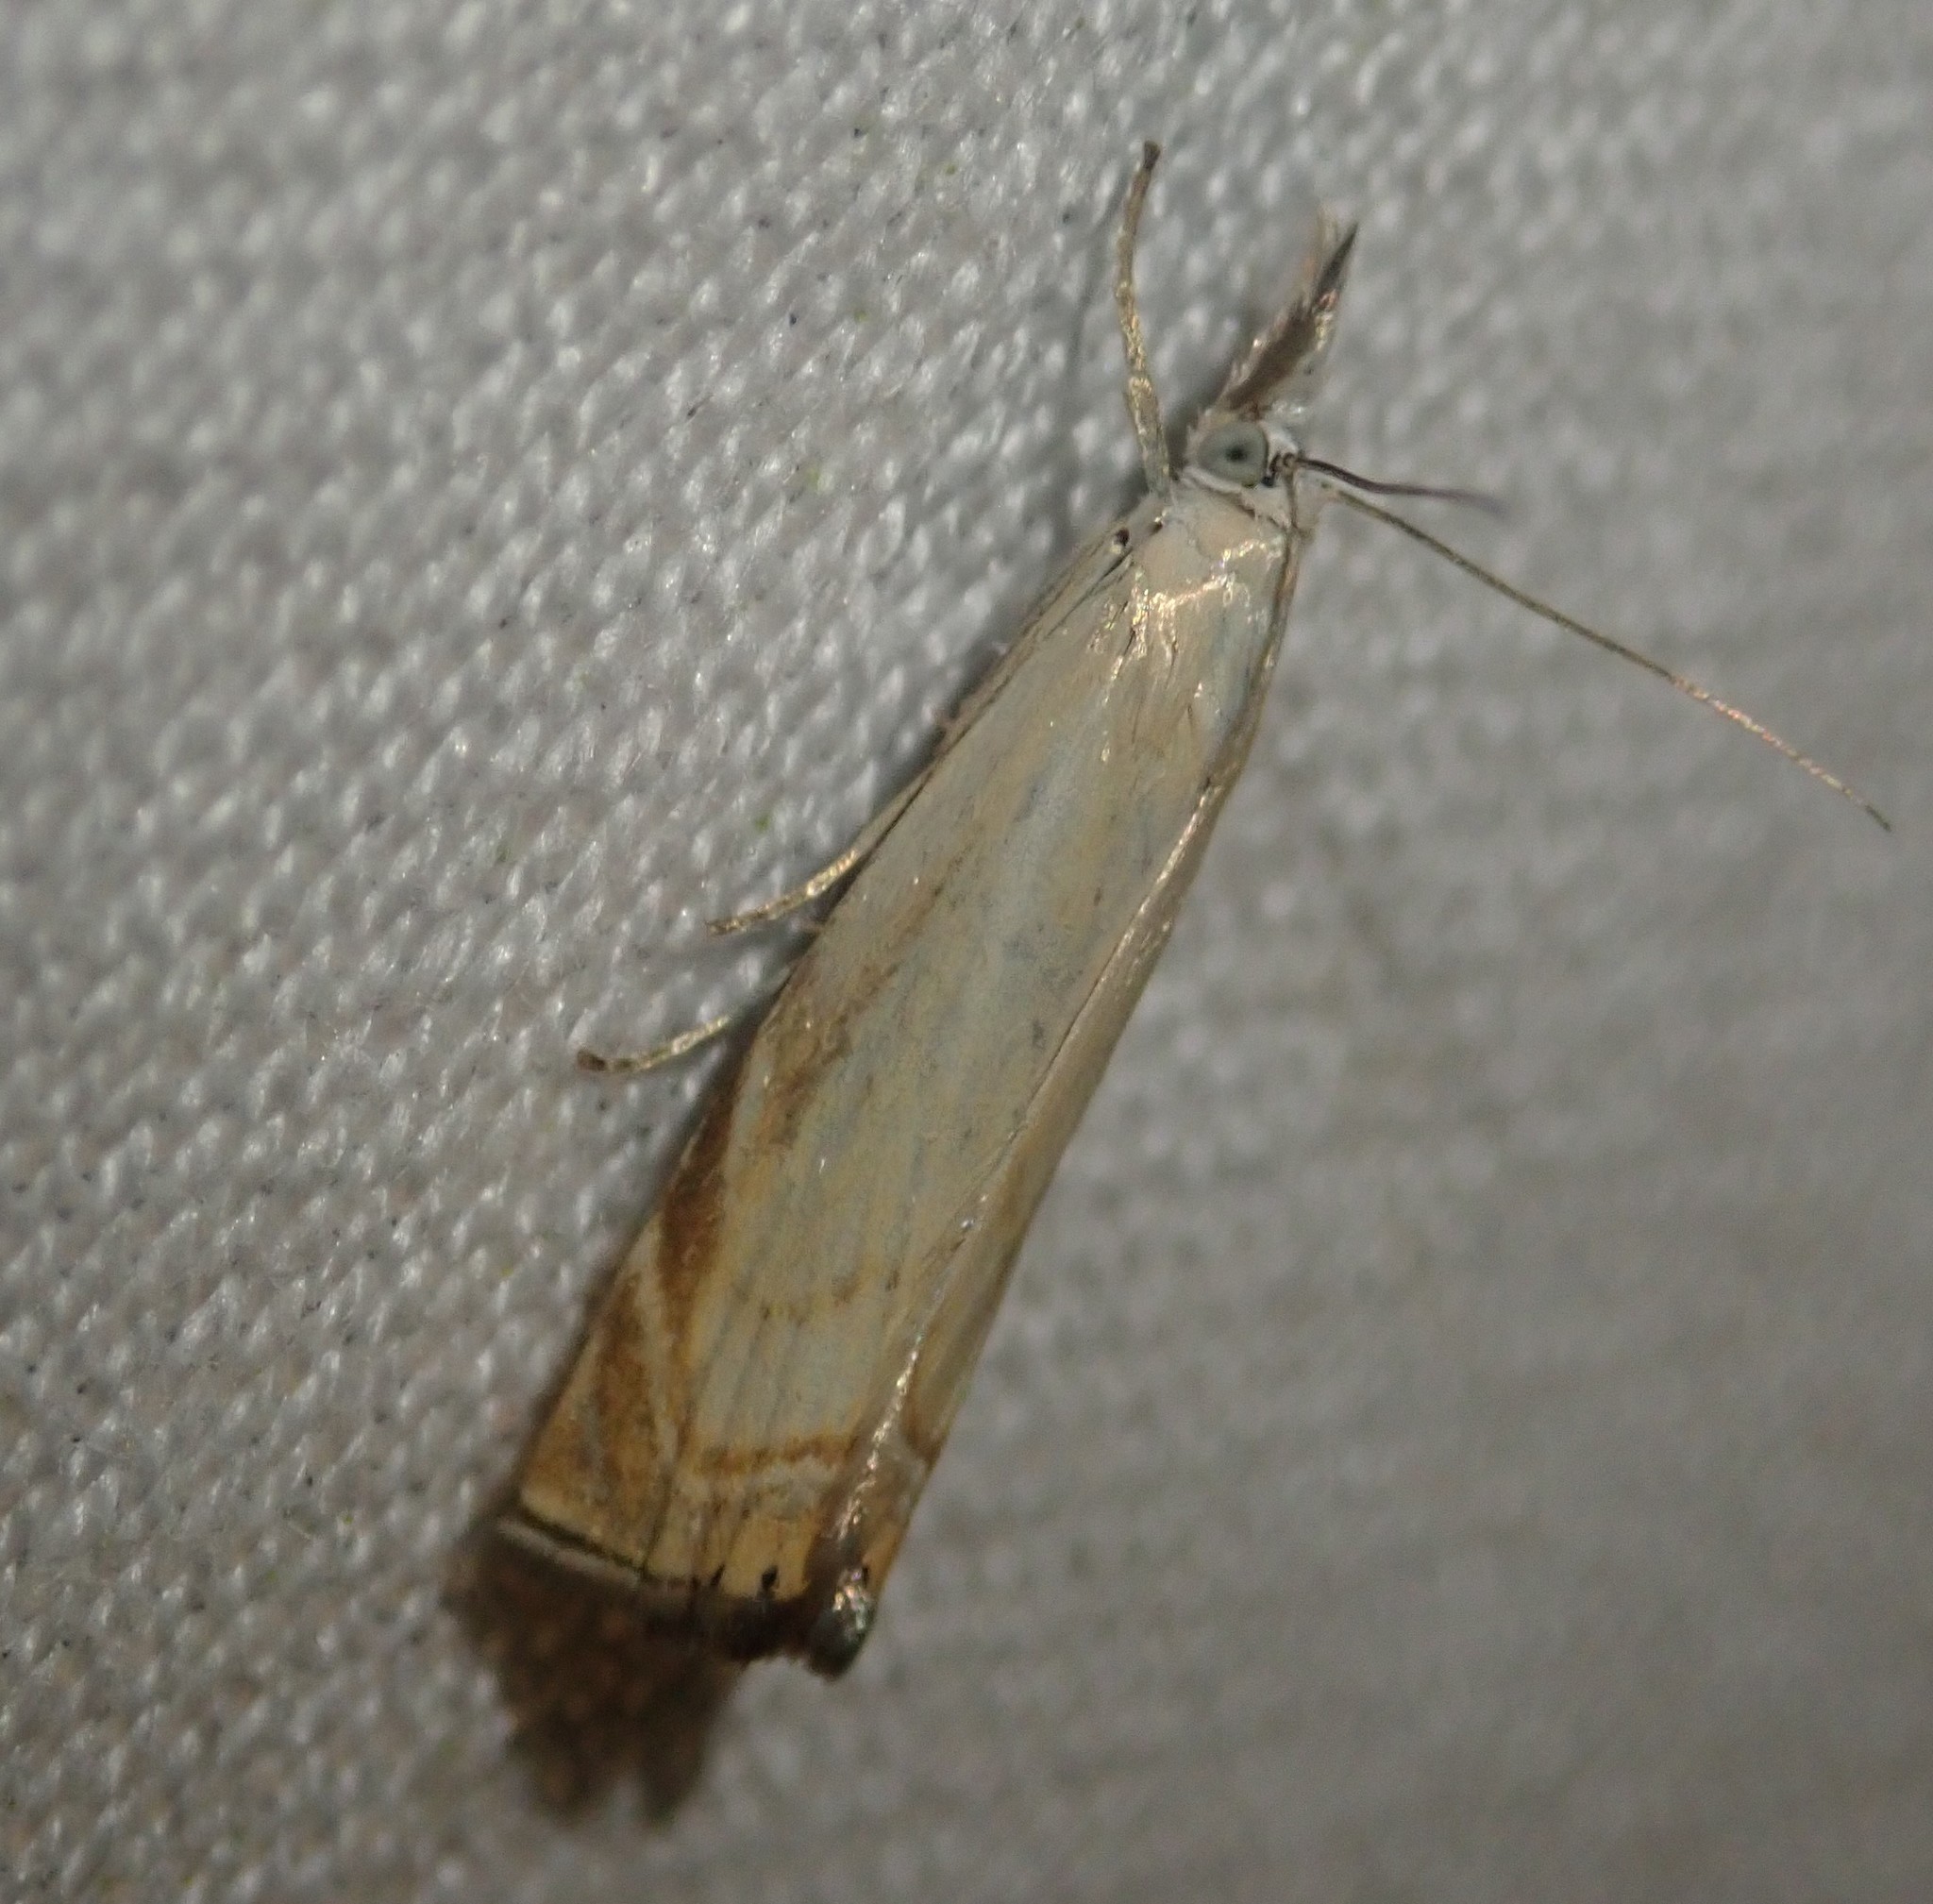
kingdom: Animalia
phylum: Arthropoda
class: Insecta
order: Lepidoptera
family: Crambidae
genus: Chrysoteuchia
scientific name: Chrysoteuchia culmella
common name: Garden grass-veneer
